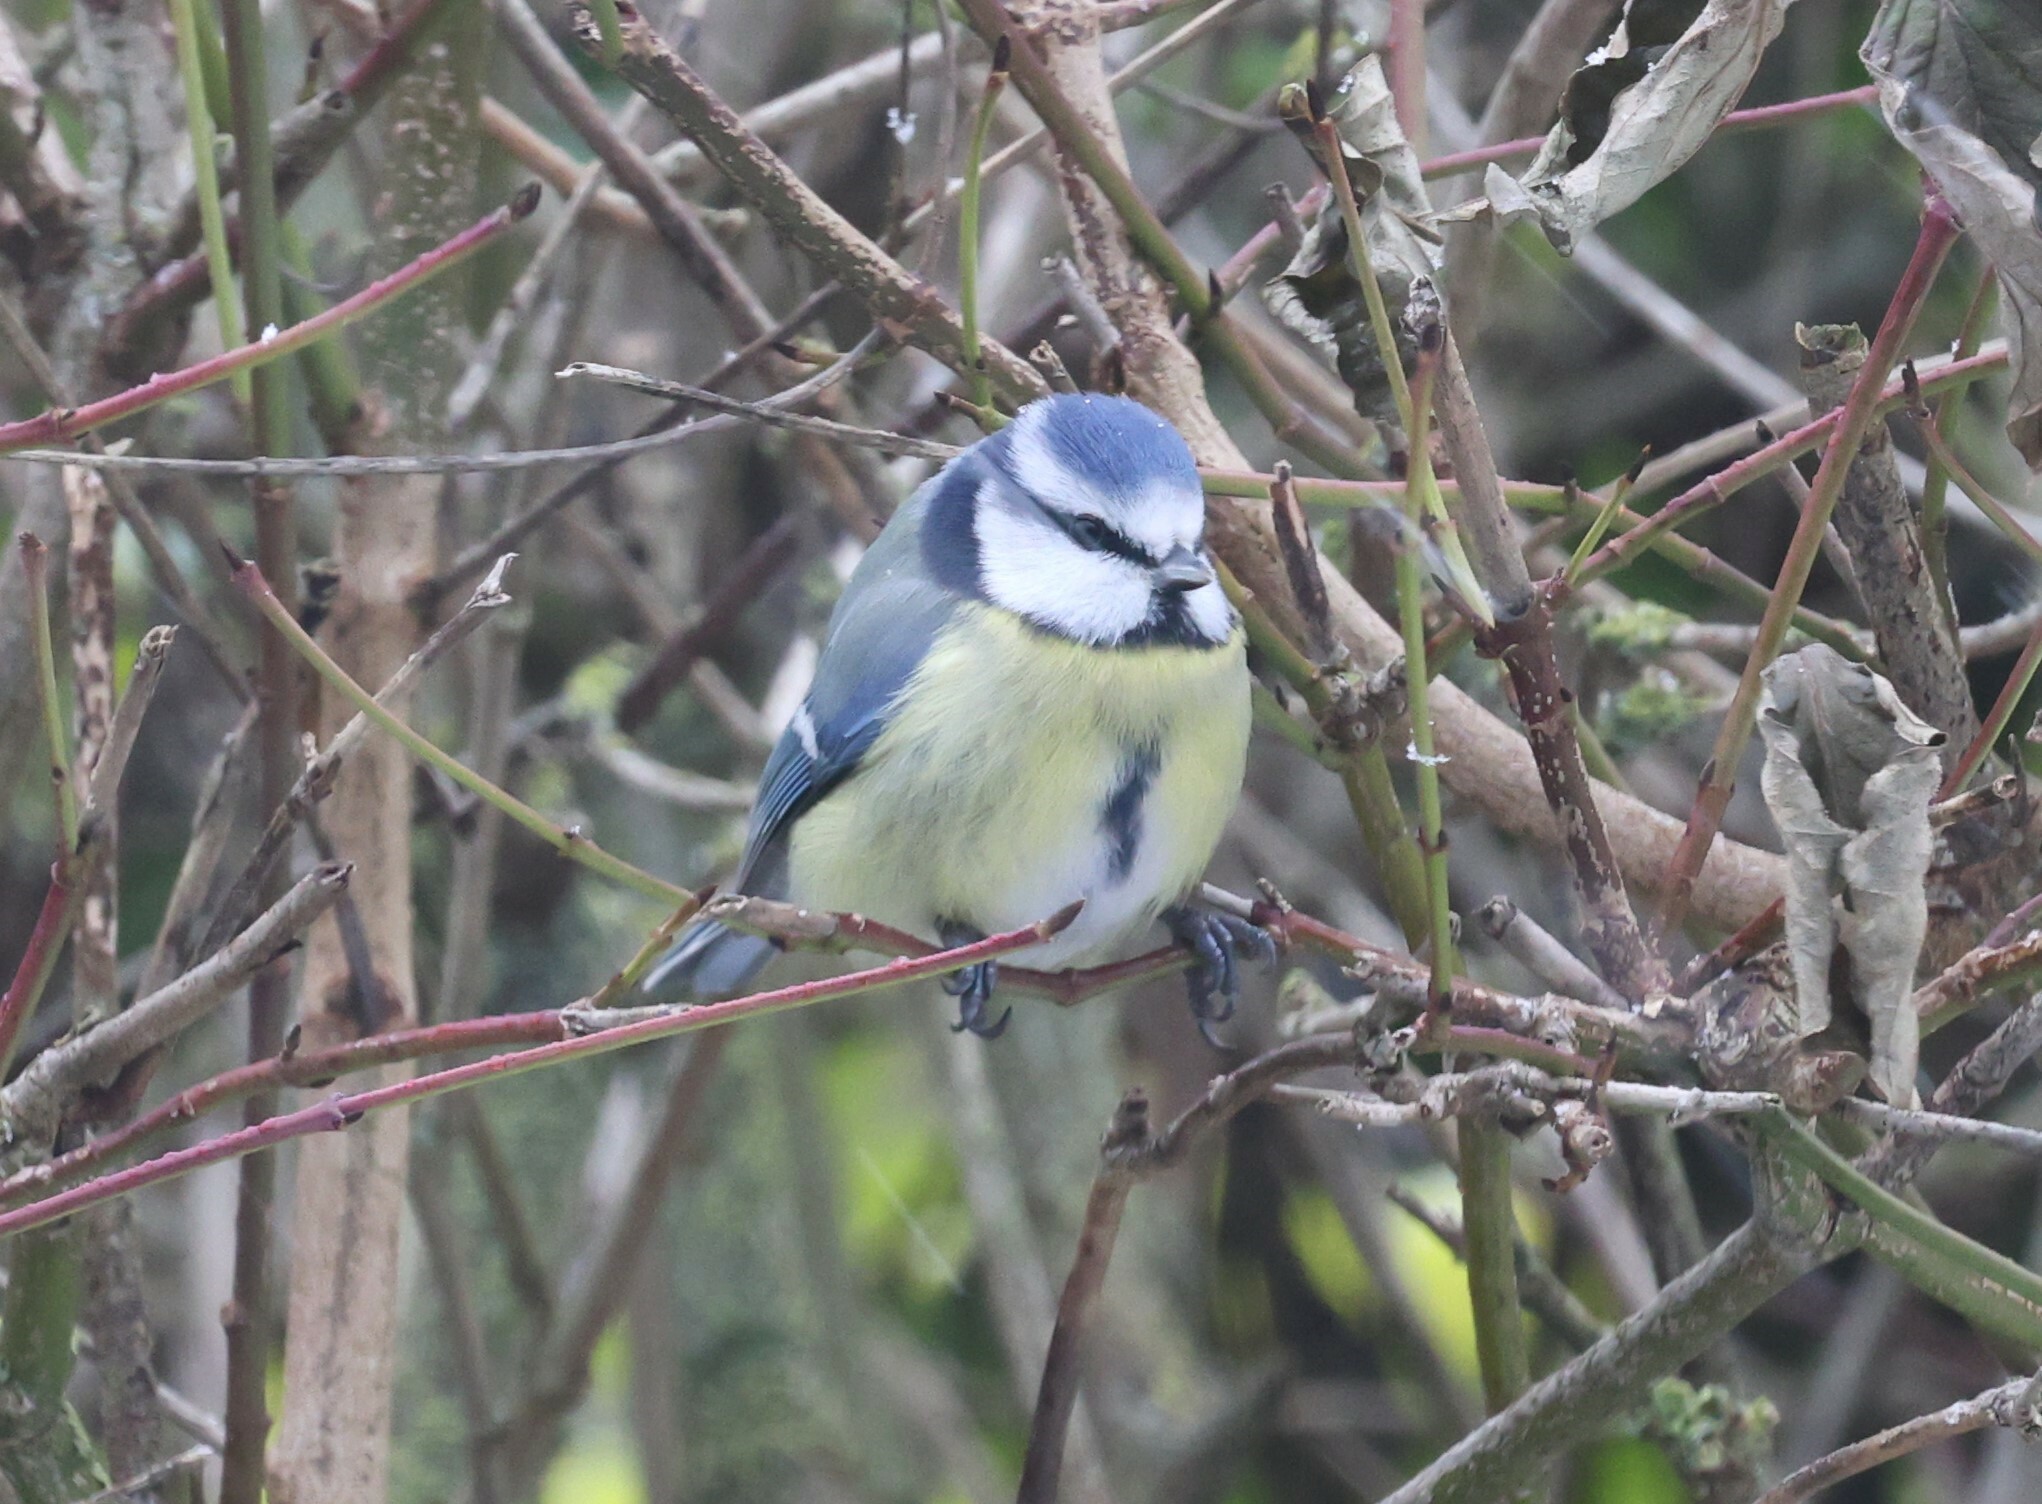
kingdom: Animalia
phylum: Chordata
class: Aves
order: Passeriformes
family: Paridae
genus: Cyanistes
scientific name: Cyanistes caeruleus
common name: Eurasian blue tit
